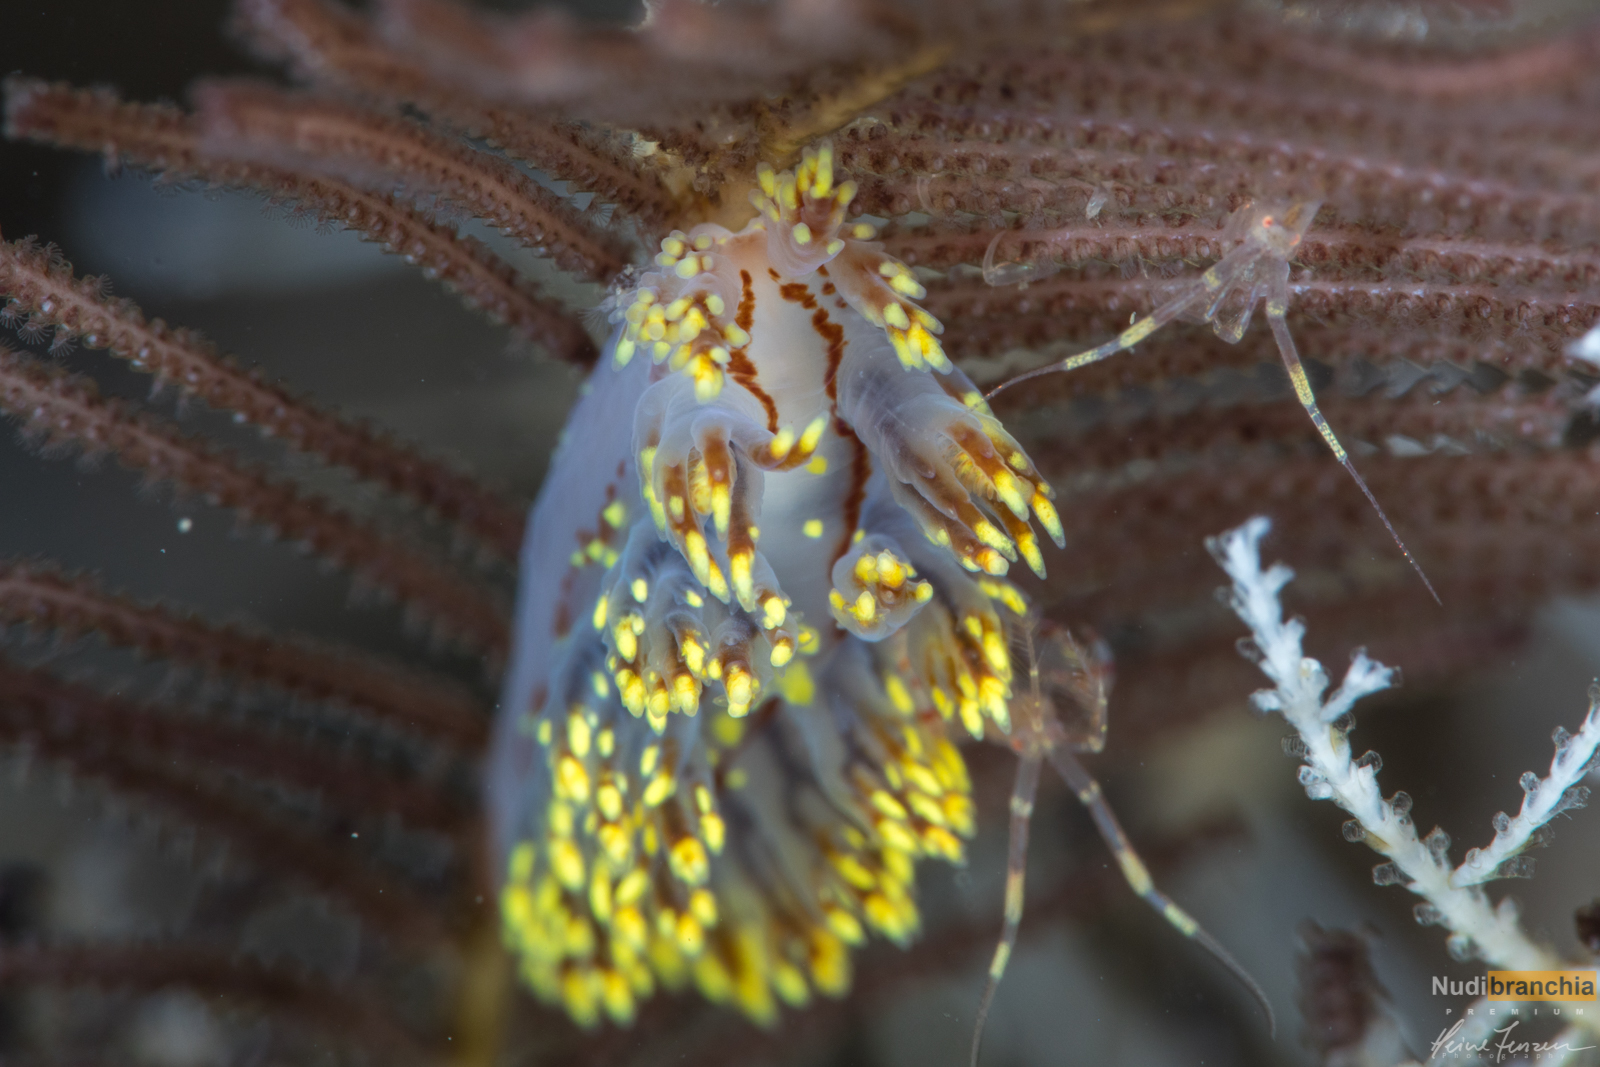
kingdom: Animalia
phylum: Mollusca
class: Gastropoda
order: Nudibranchia
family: Dendronotidae
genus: Dendronotus
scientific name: Dendronotus yrjargul
